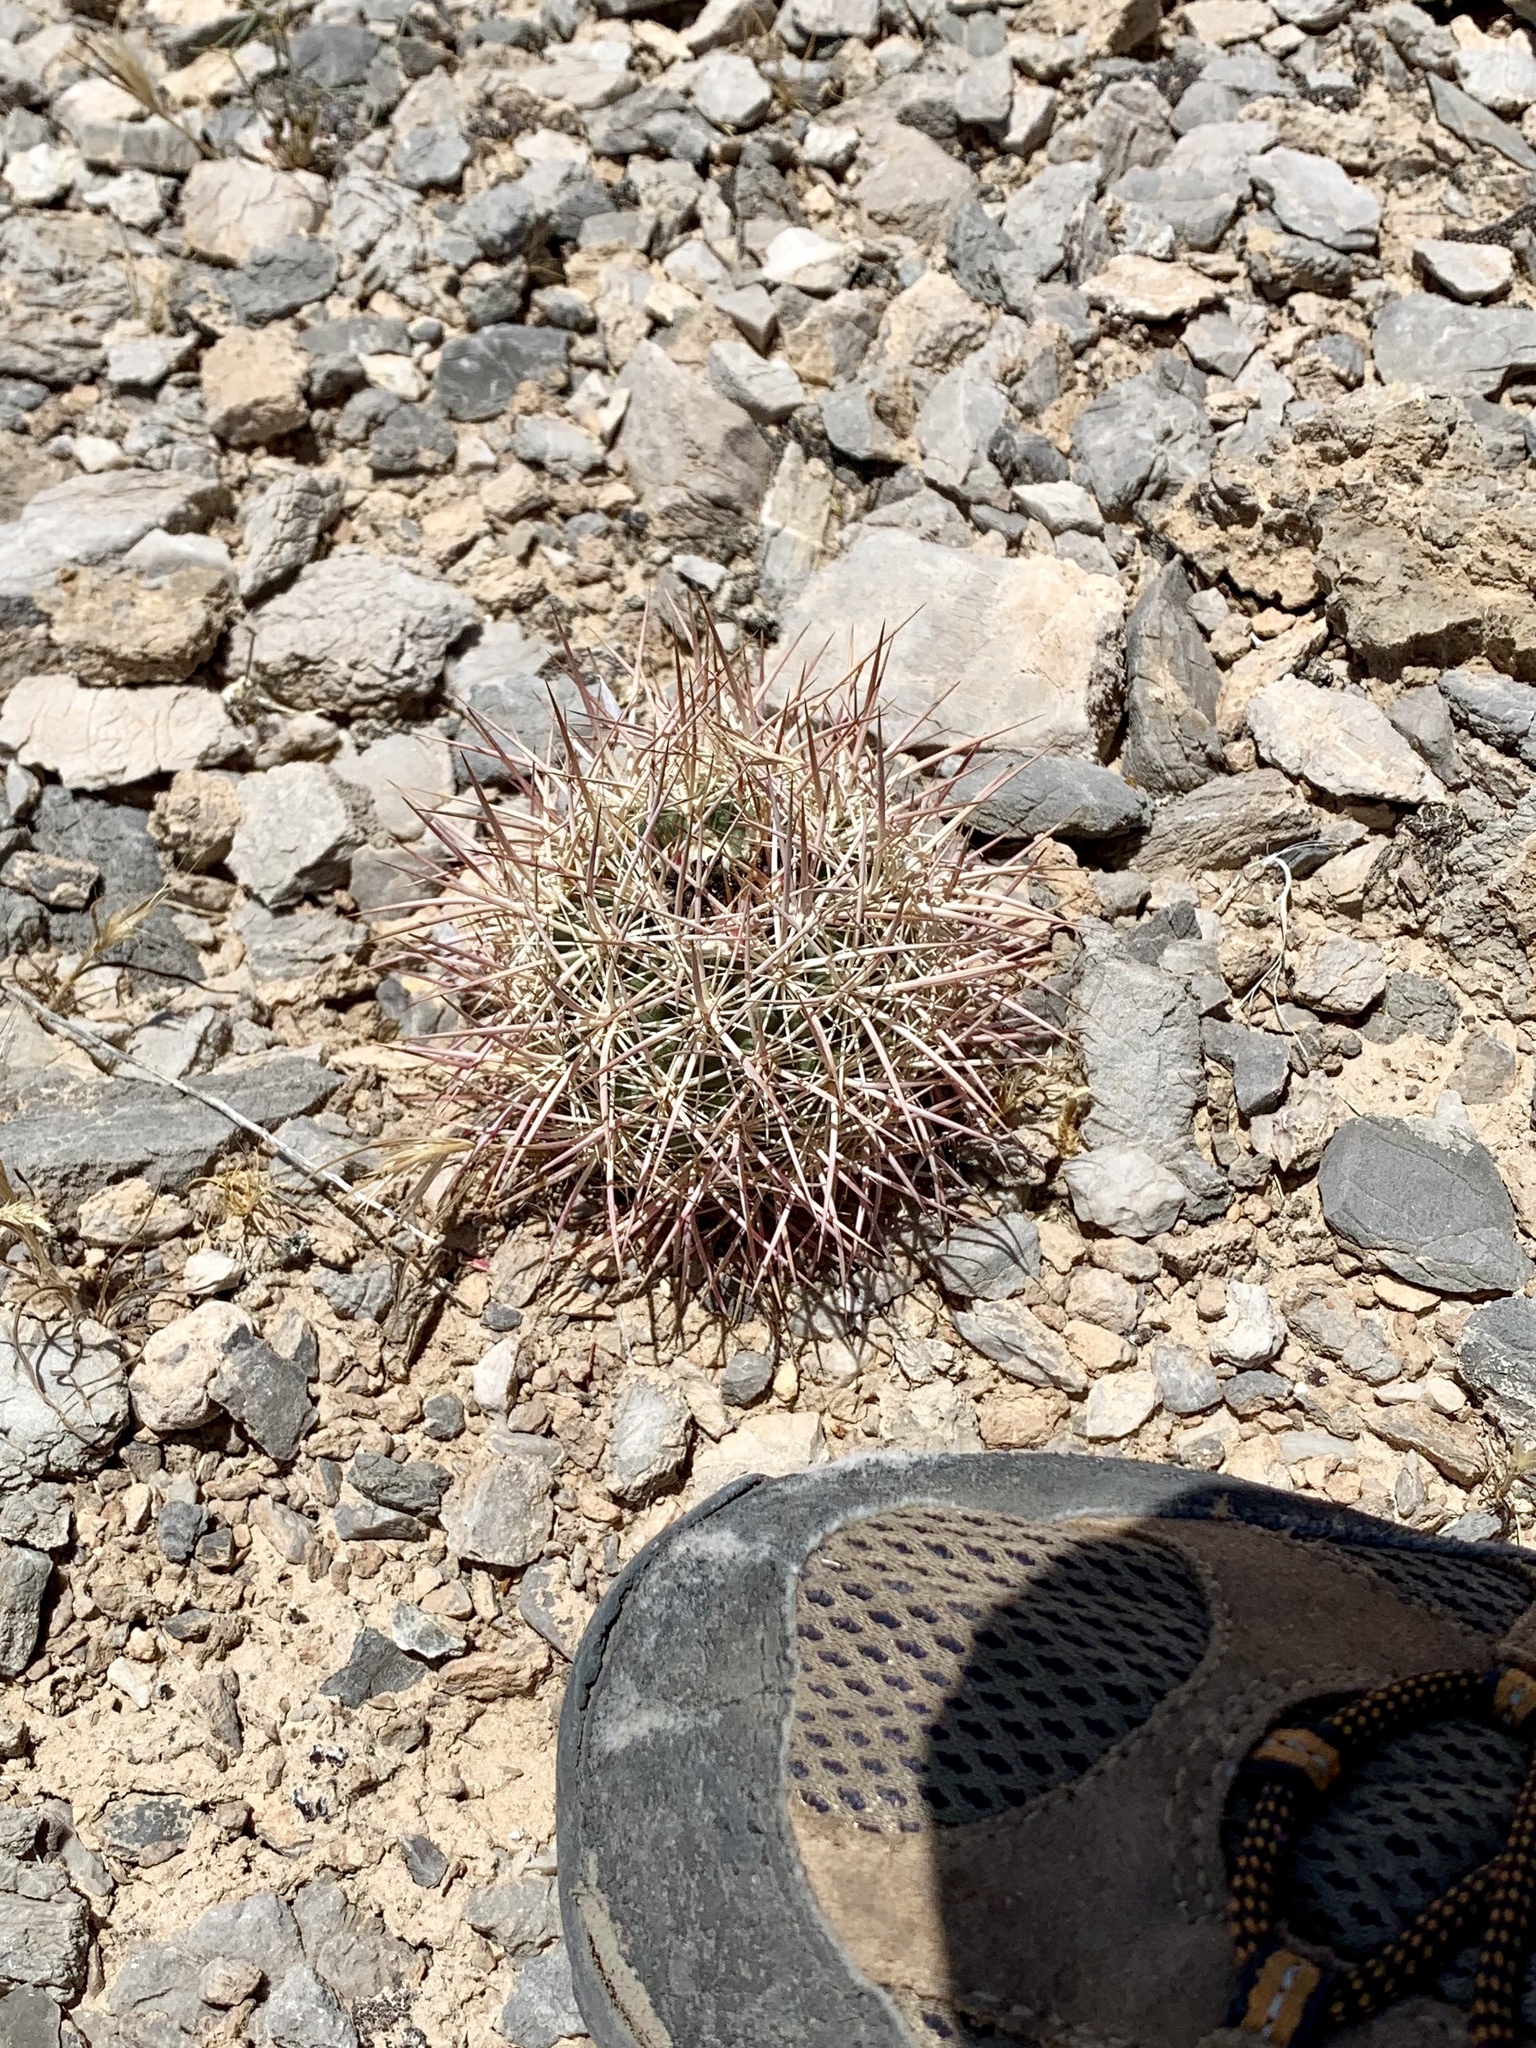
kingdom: Plantae
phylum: Tracheophyta
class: Magnoliopsida
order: Caryophyllales
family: Cactaceae
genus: Sclerocactus
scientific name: Sclerocactus johnsonii
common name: Eight-spine fishhook cactus
